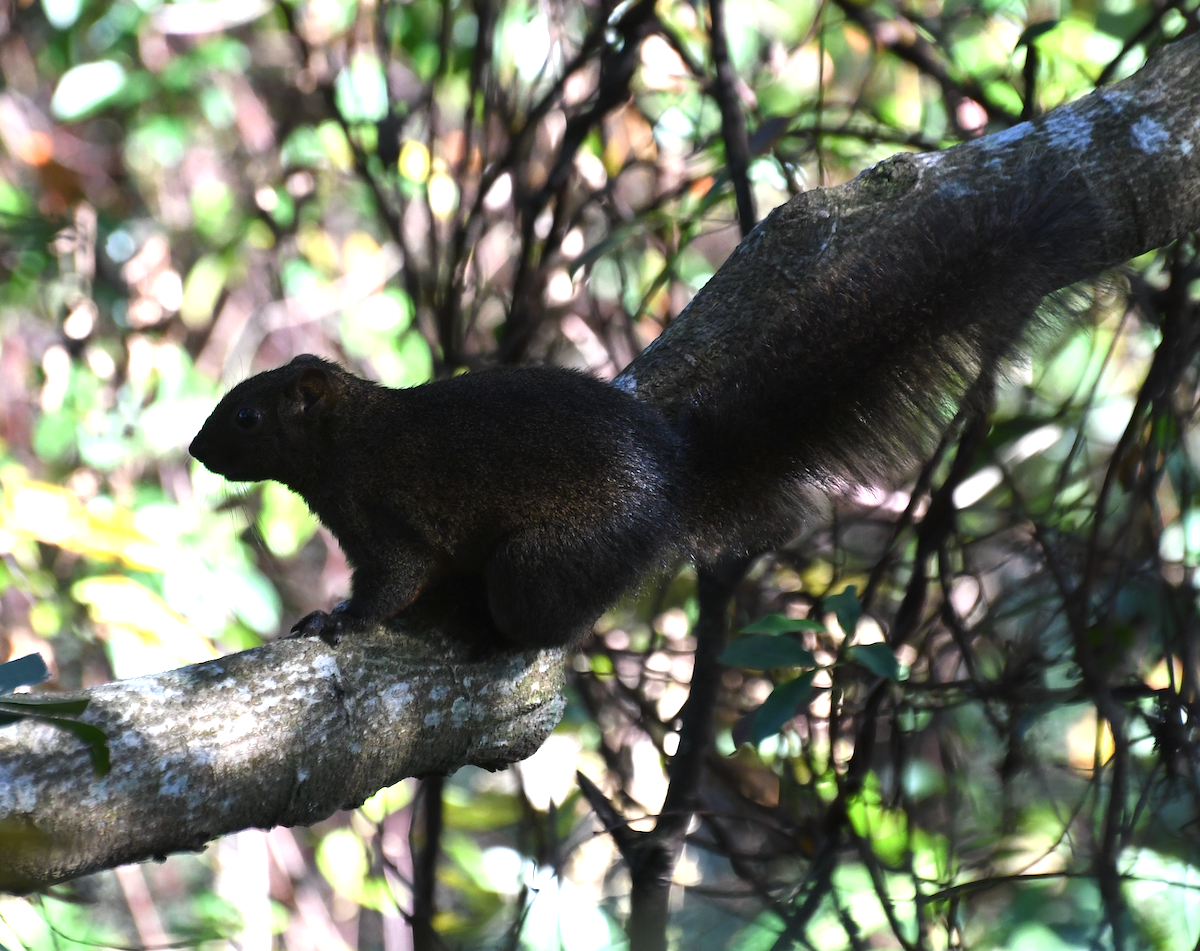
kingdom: Animalia
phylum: Chordata
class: Mammalia
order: Rodentia
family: Sciuridae
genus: Callosciurus
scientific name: Callosciurus erythraeus
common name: Pallas's squirrel
